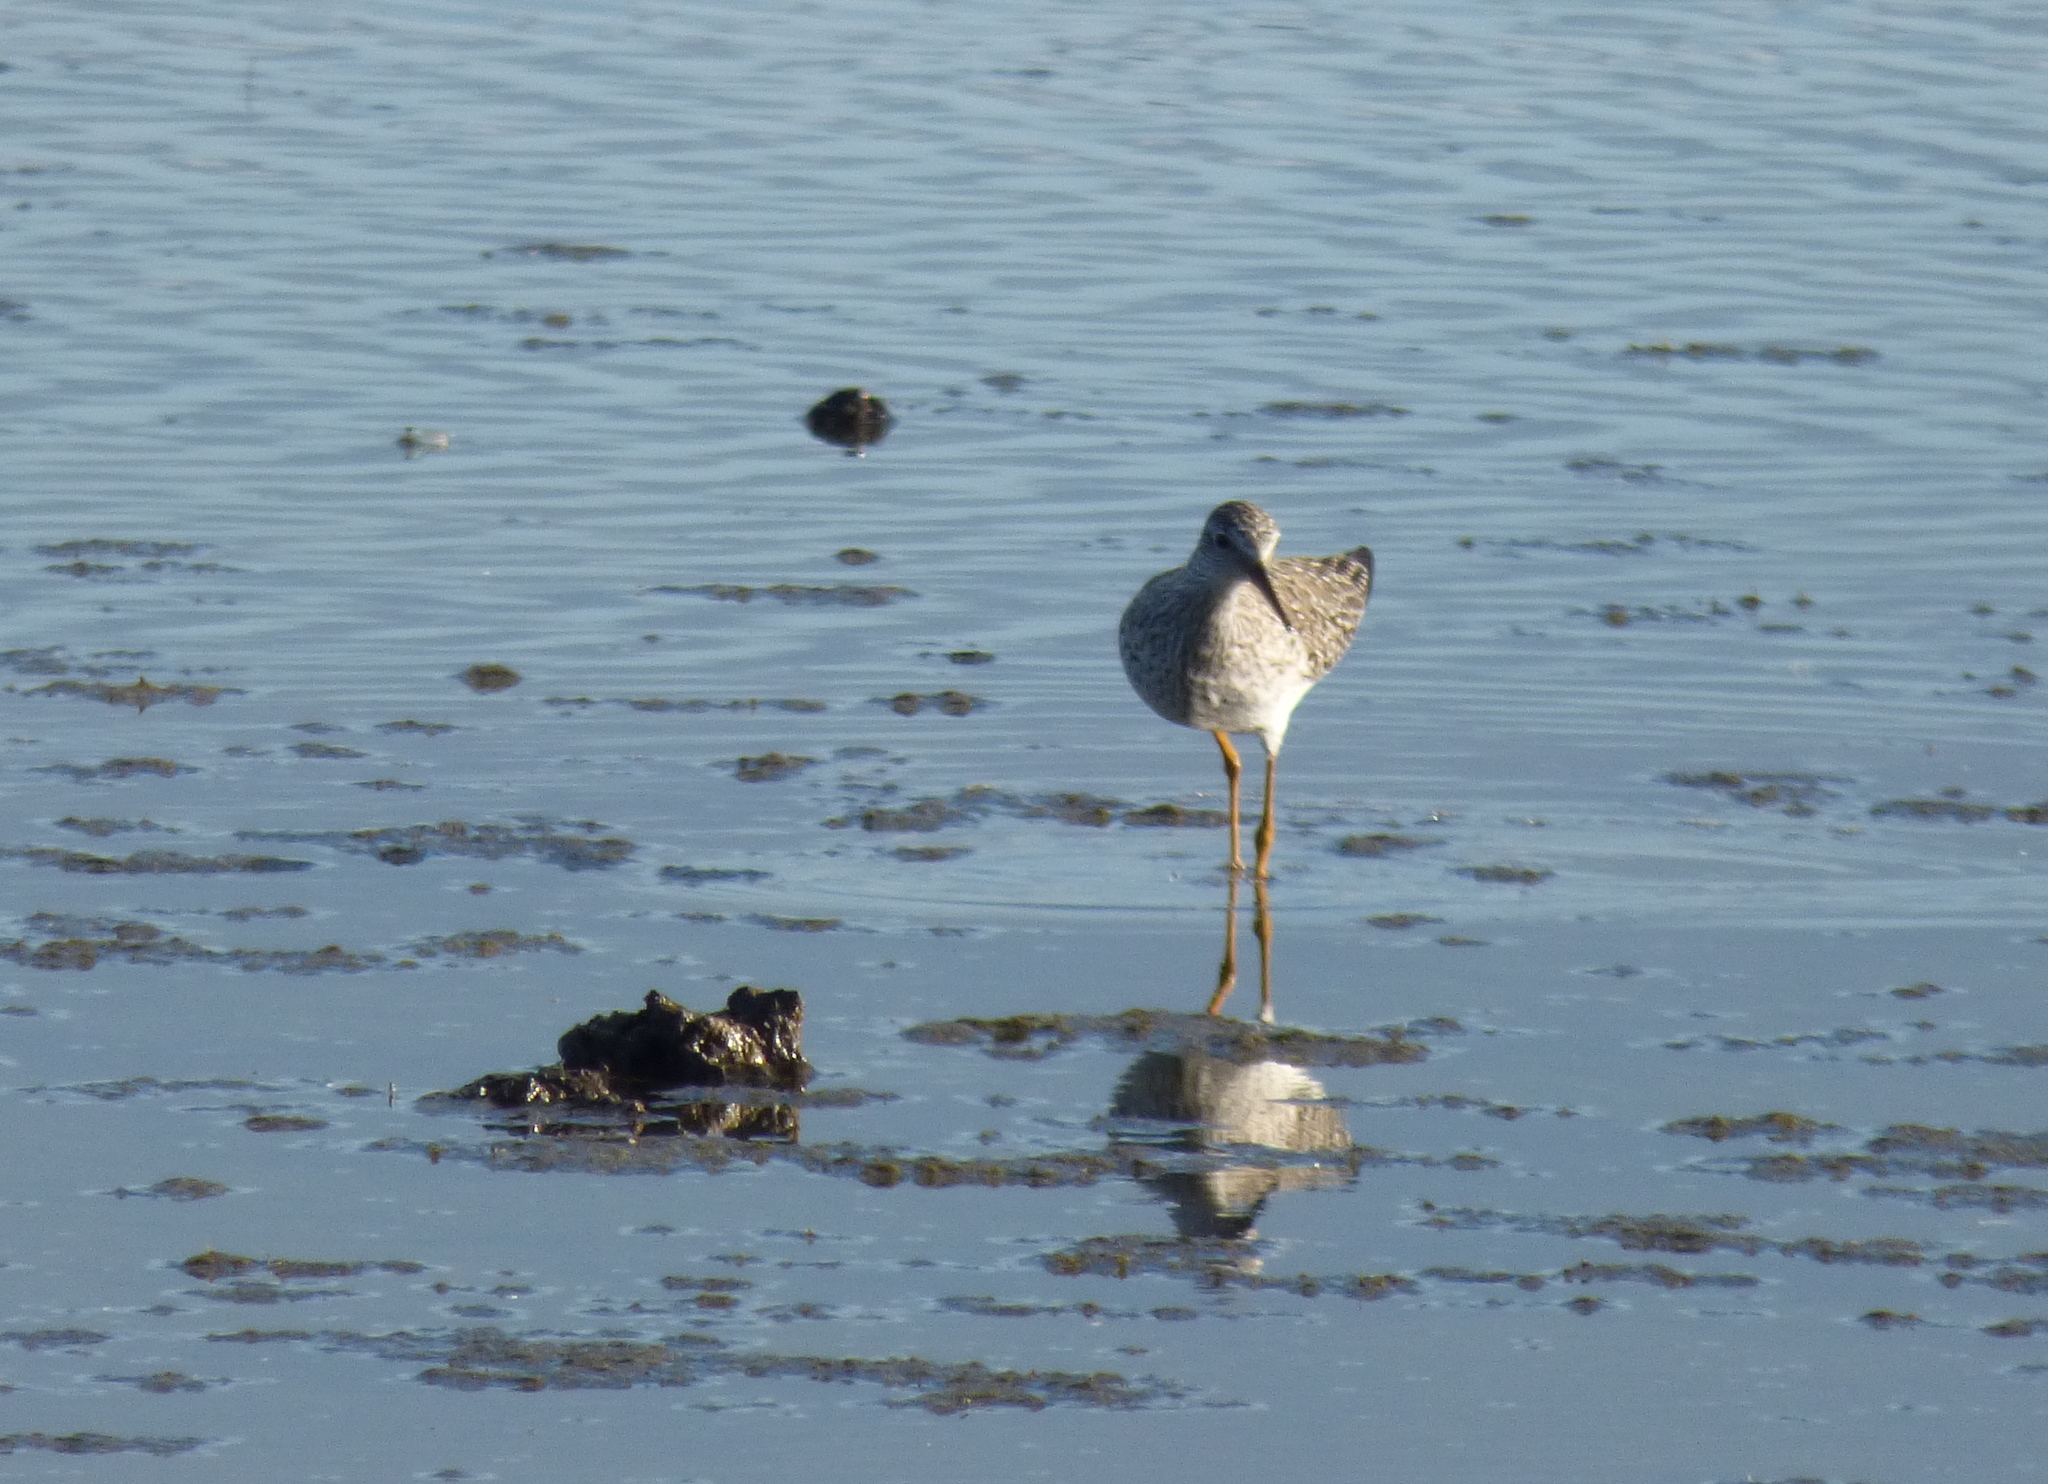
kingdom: Animalia
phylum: Chordata
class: Aves
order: Charadriiformes
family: Scolopacidae
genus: Tringa
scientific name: Tringa flavipes
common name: Lesser yellowlegs
